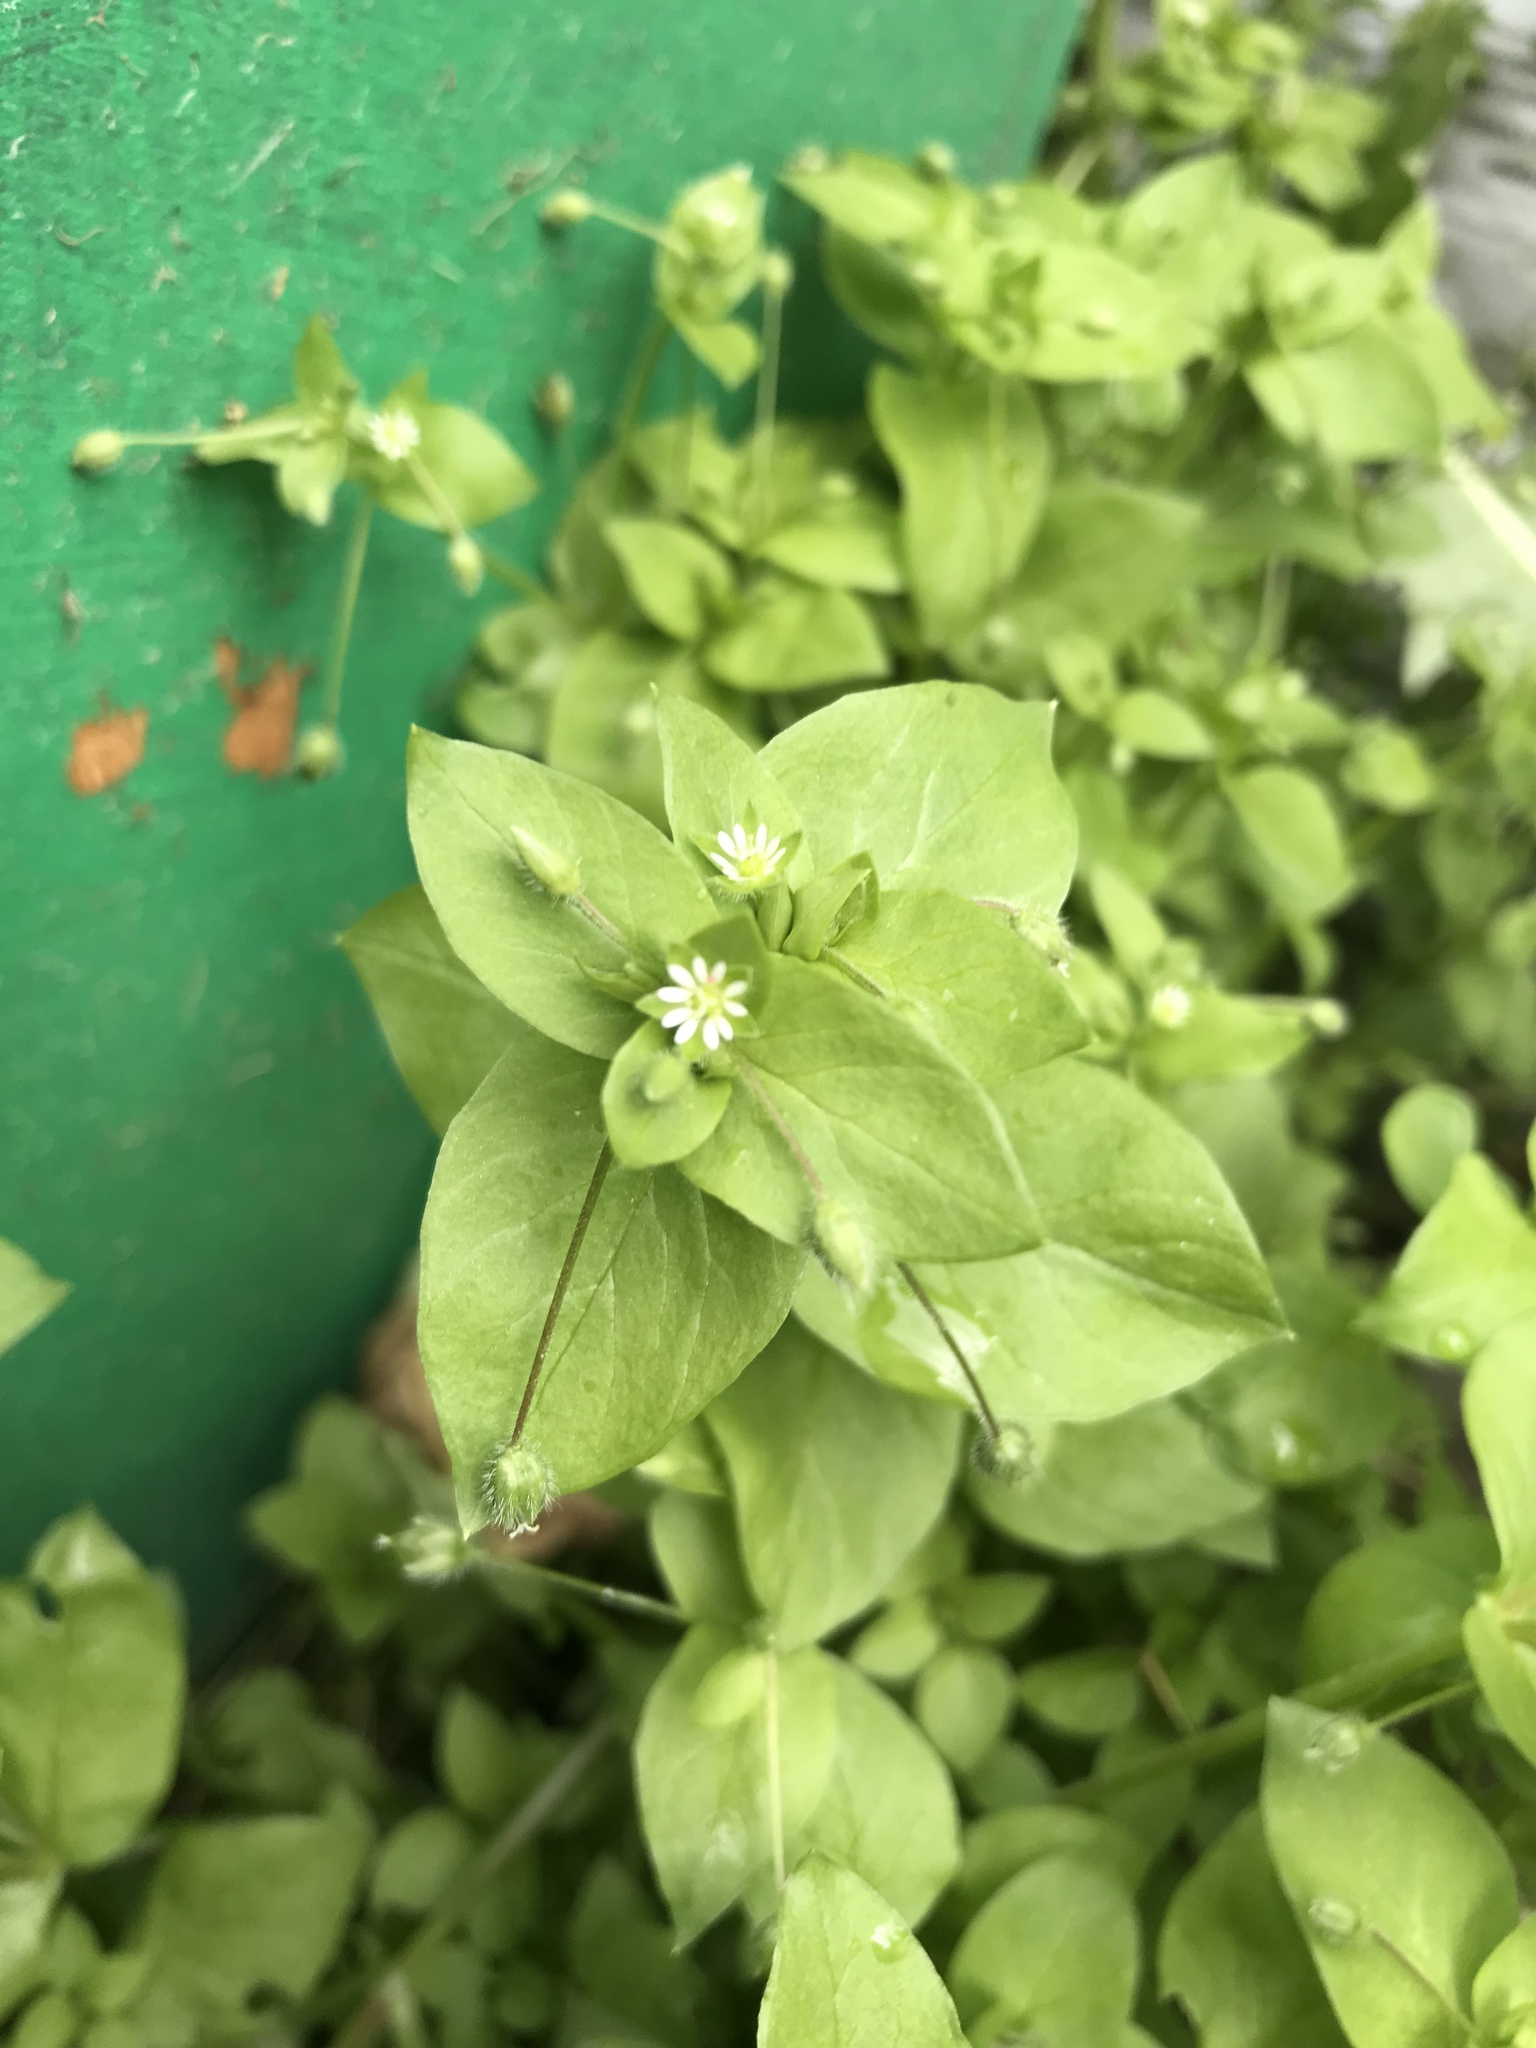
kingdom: Plantae
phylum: Tracheophyta
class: Magnoliopsida
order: Caryophyllales
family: Caryophyllaceae
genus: Stellaria
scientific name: Stellaria media
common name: Common chickweed
